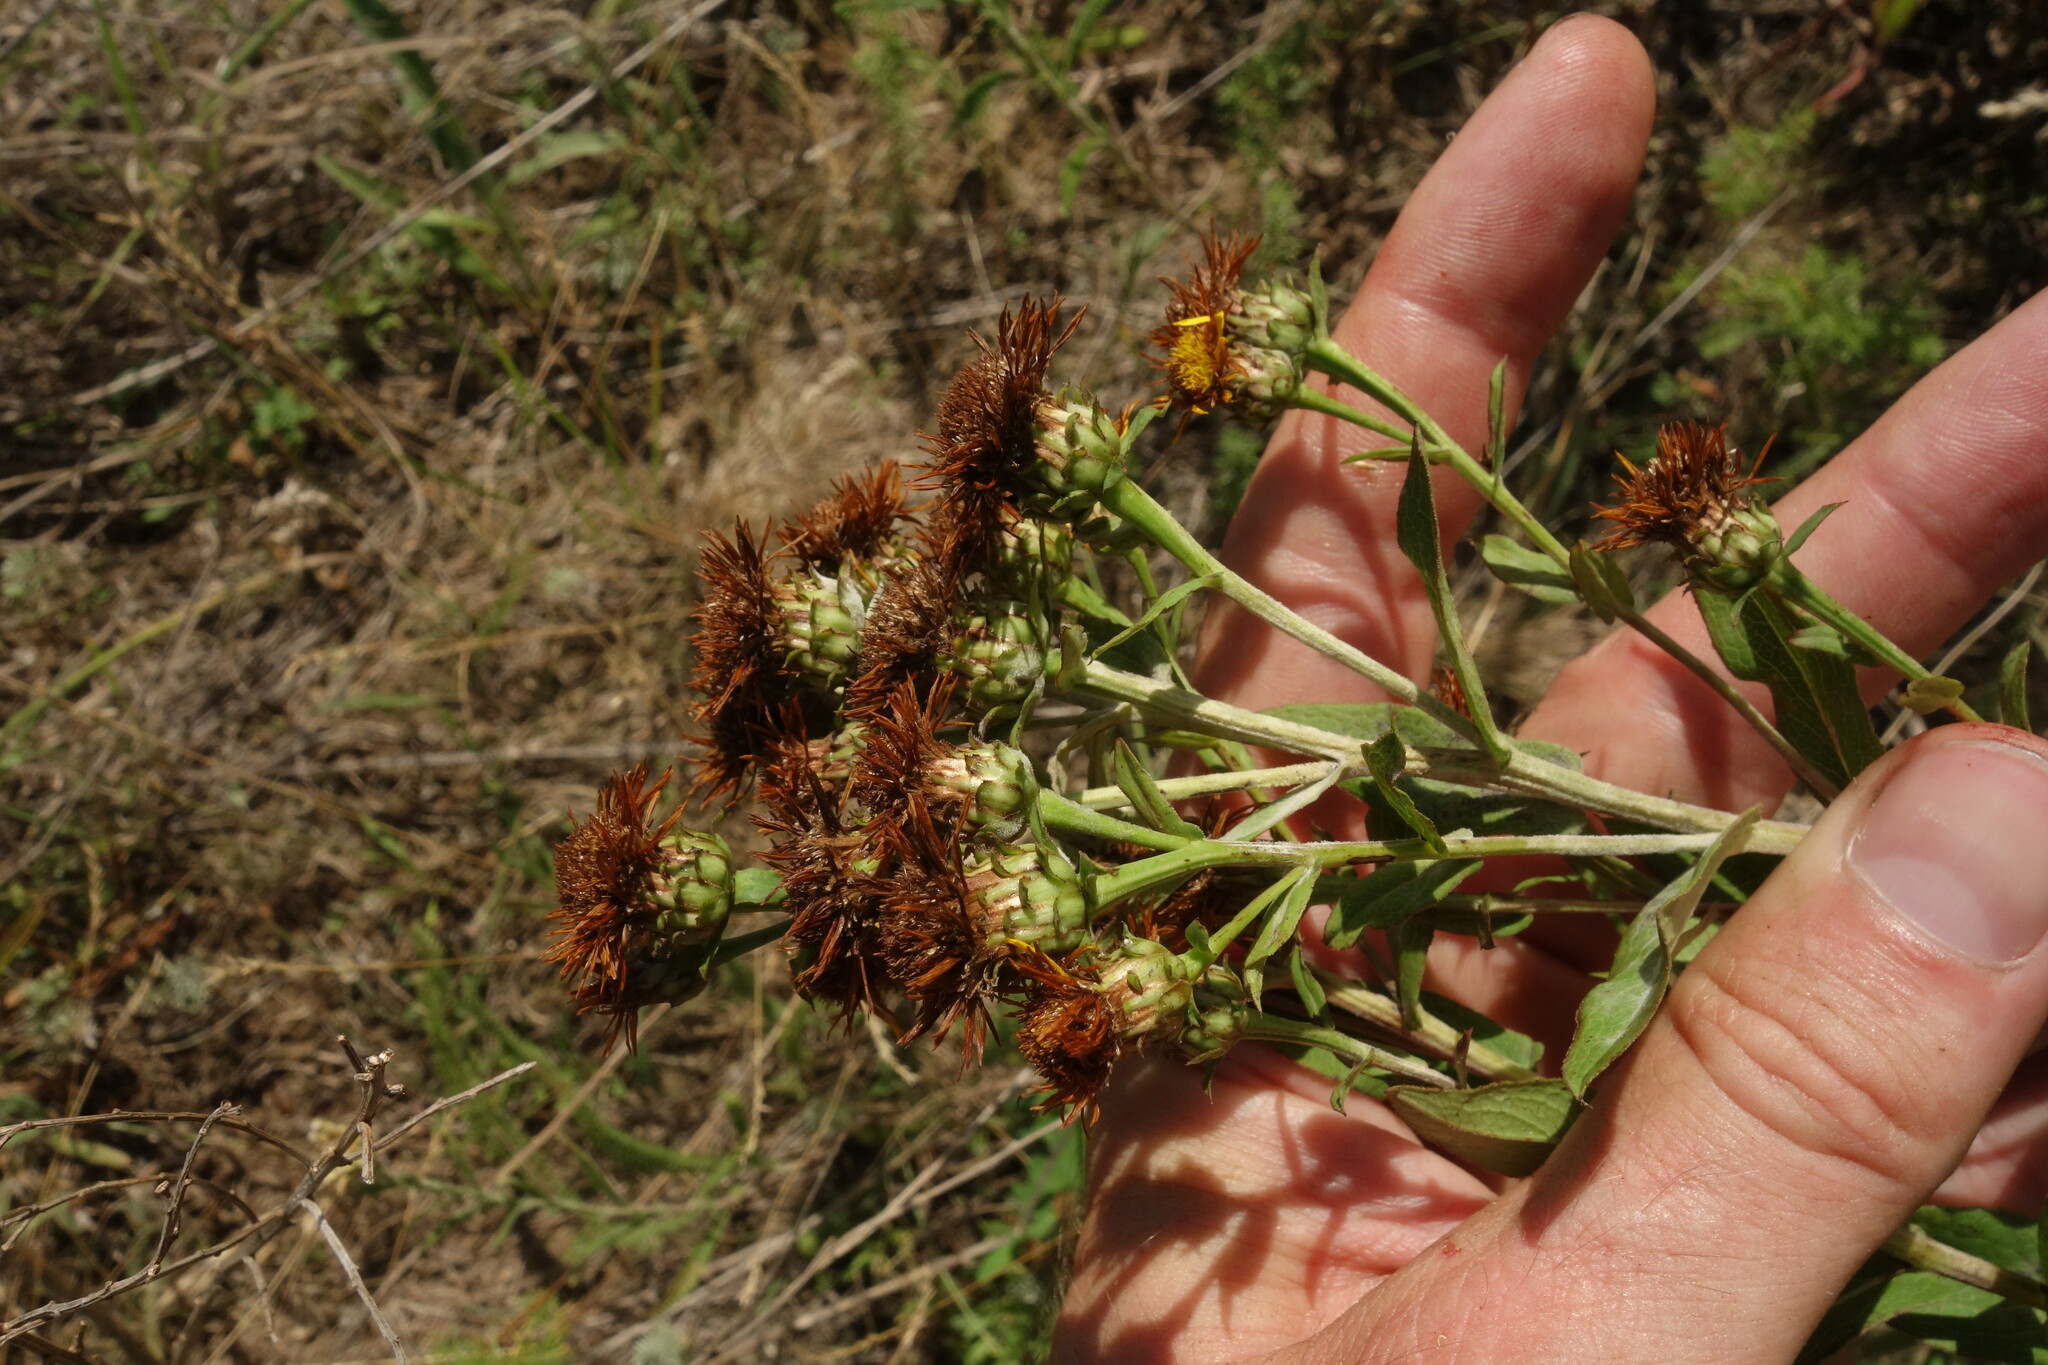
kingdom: Plantae
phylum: Tracheophyta
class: Magnoliopsida
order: Asterales
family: Asteraceae
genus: Pentanema
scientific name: Pentanema asperum
